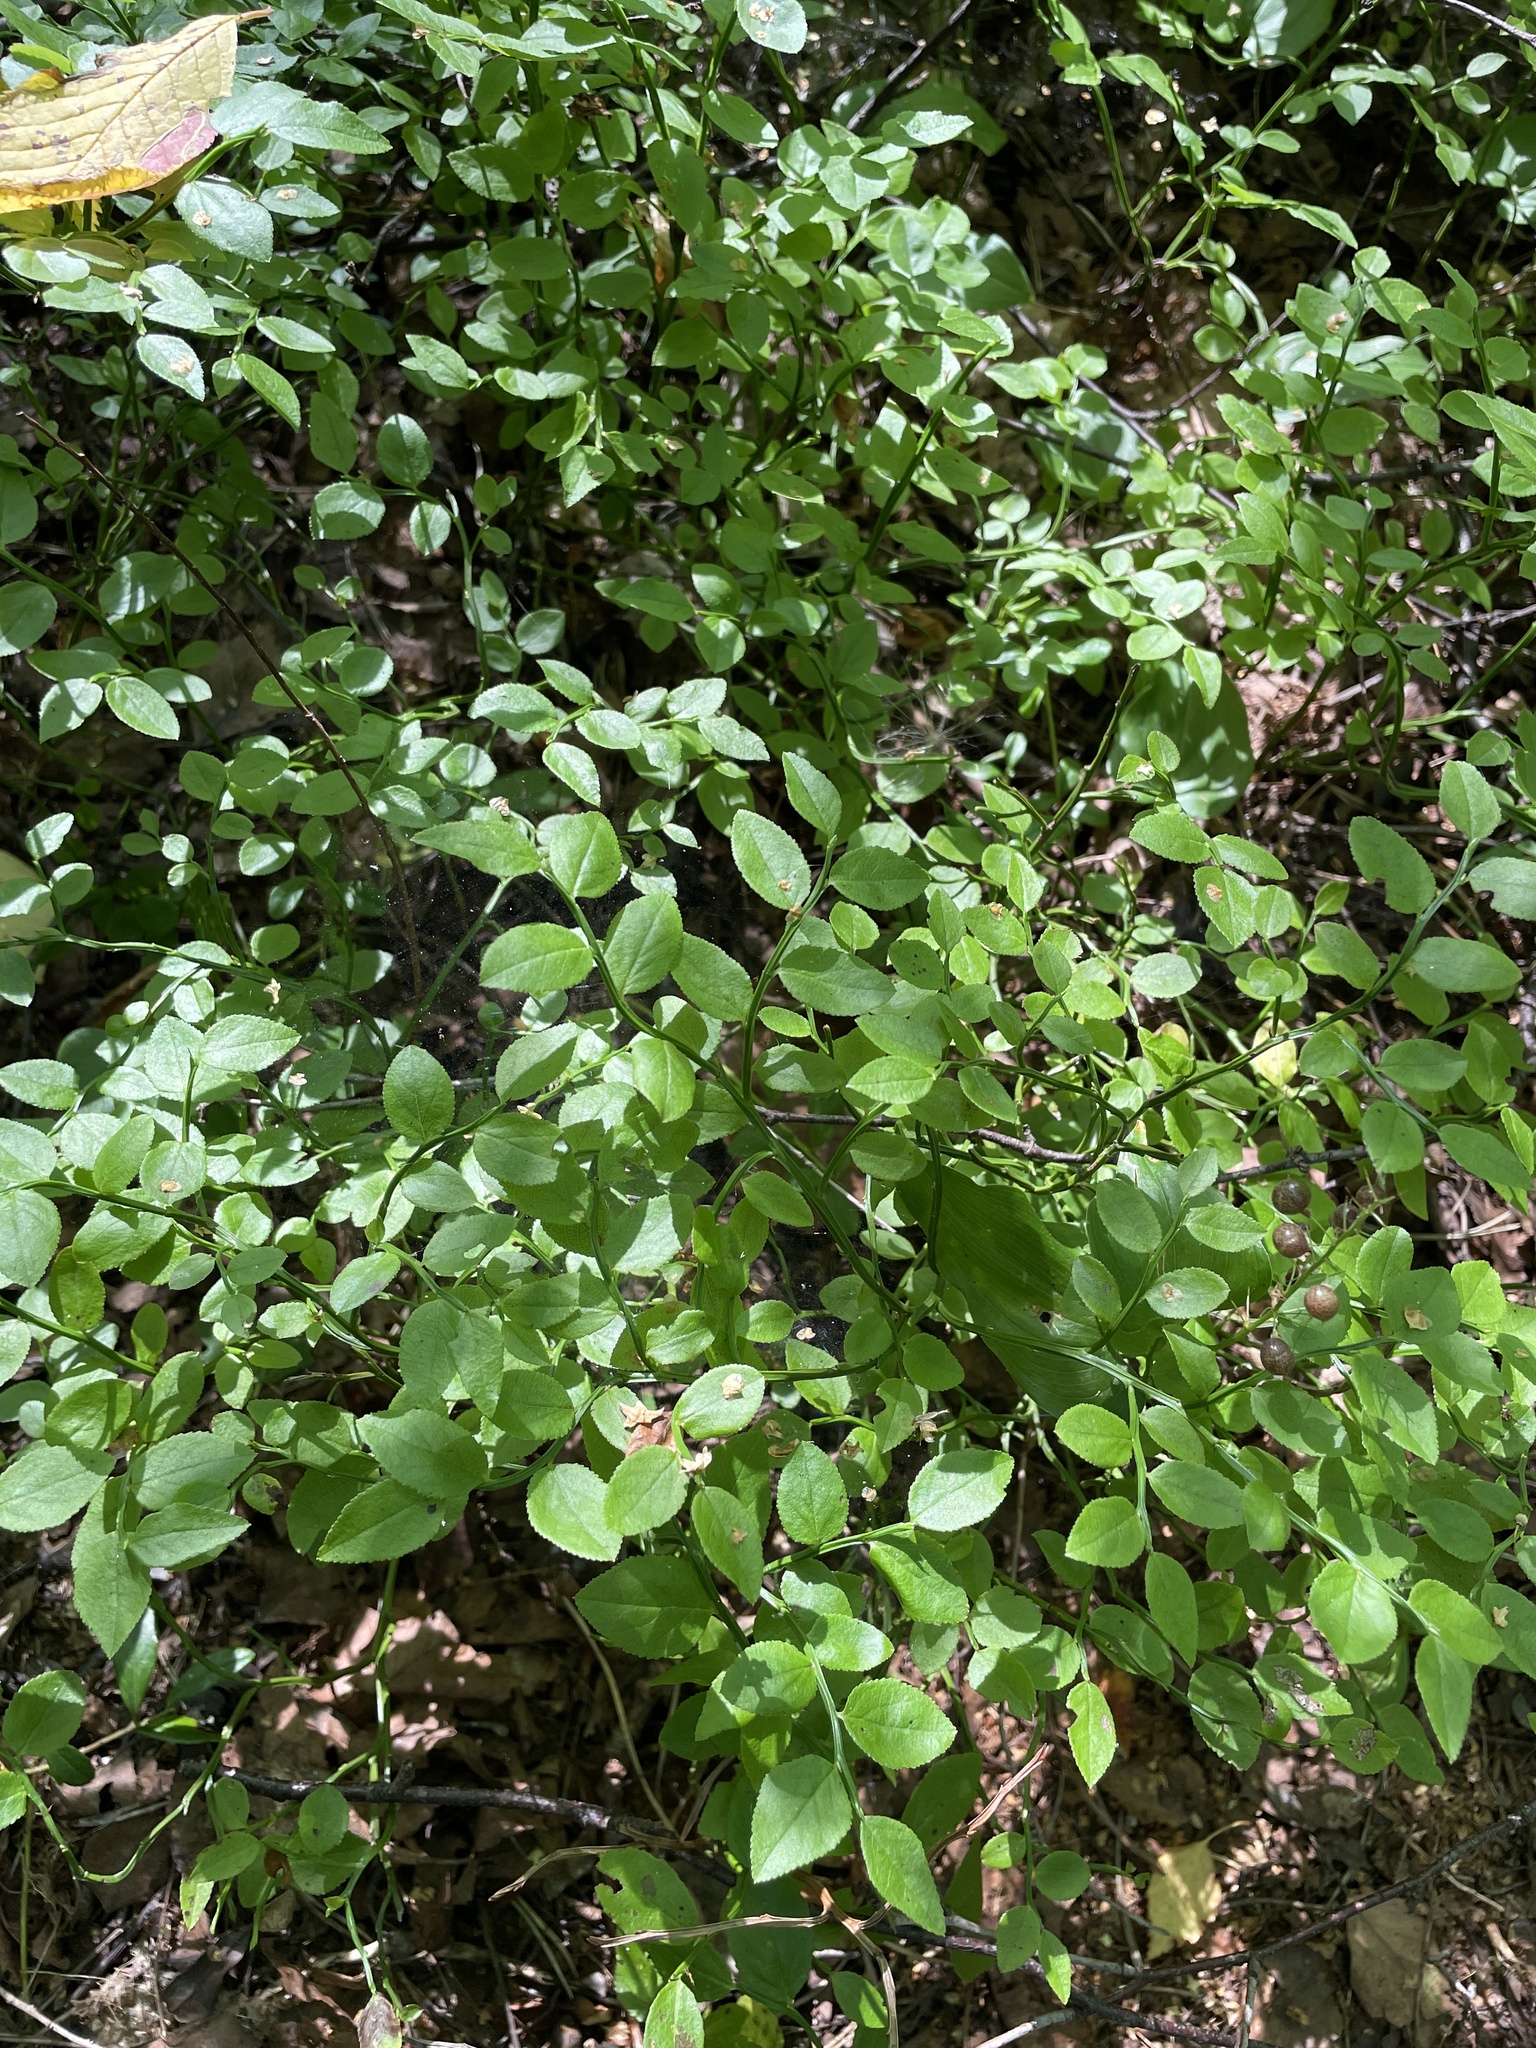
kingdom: Plantae
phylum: Tracheophyta
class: Magnoliopsida
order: Ericales
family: Ericaceae
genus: Vaccinium
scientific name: Vaccinium myrtillus
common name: Bilberry
